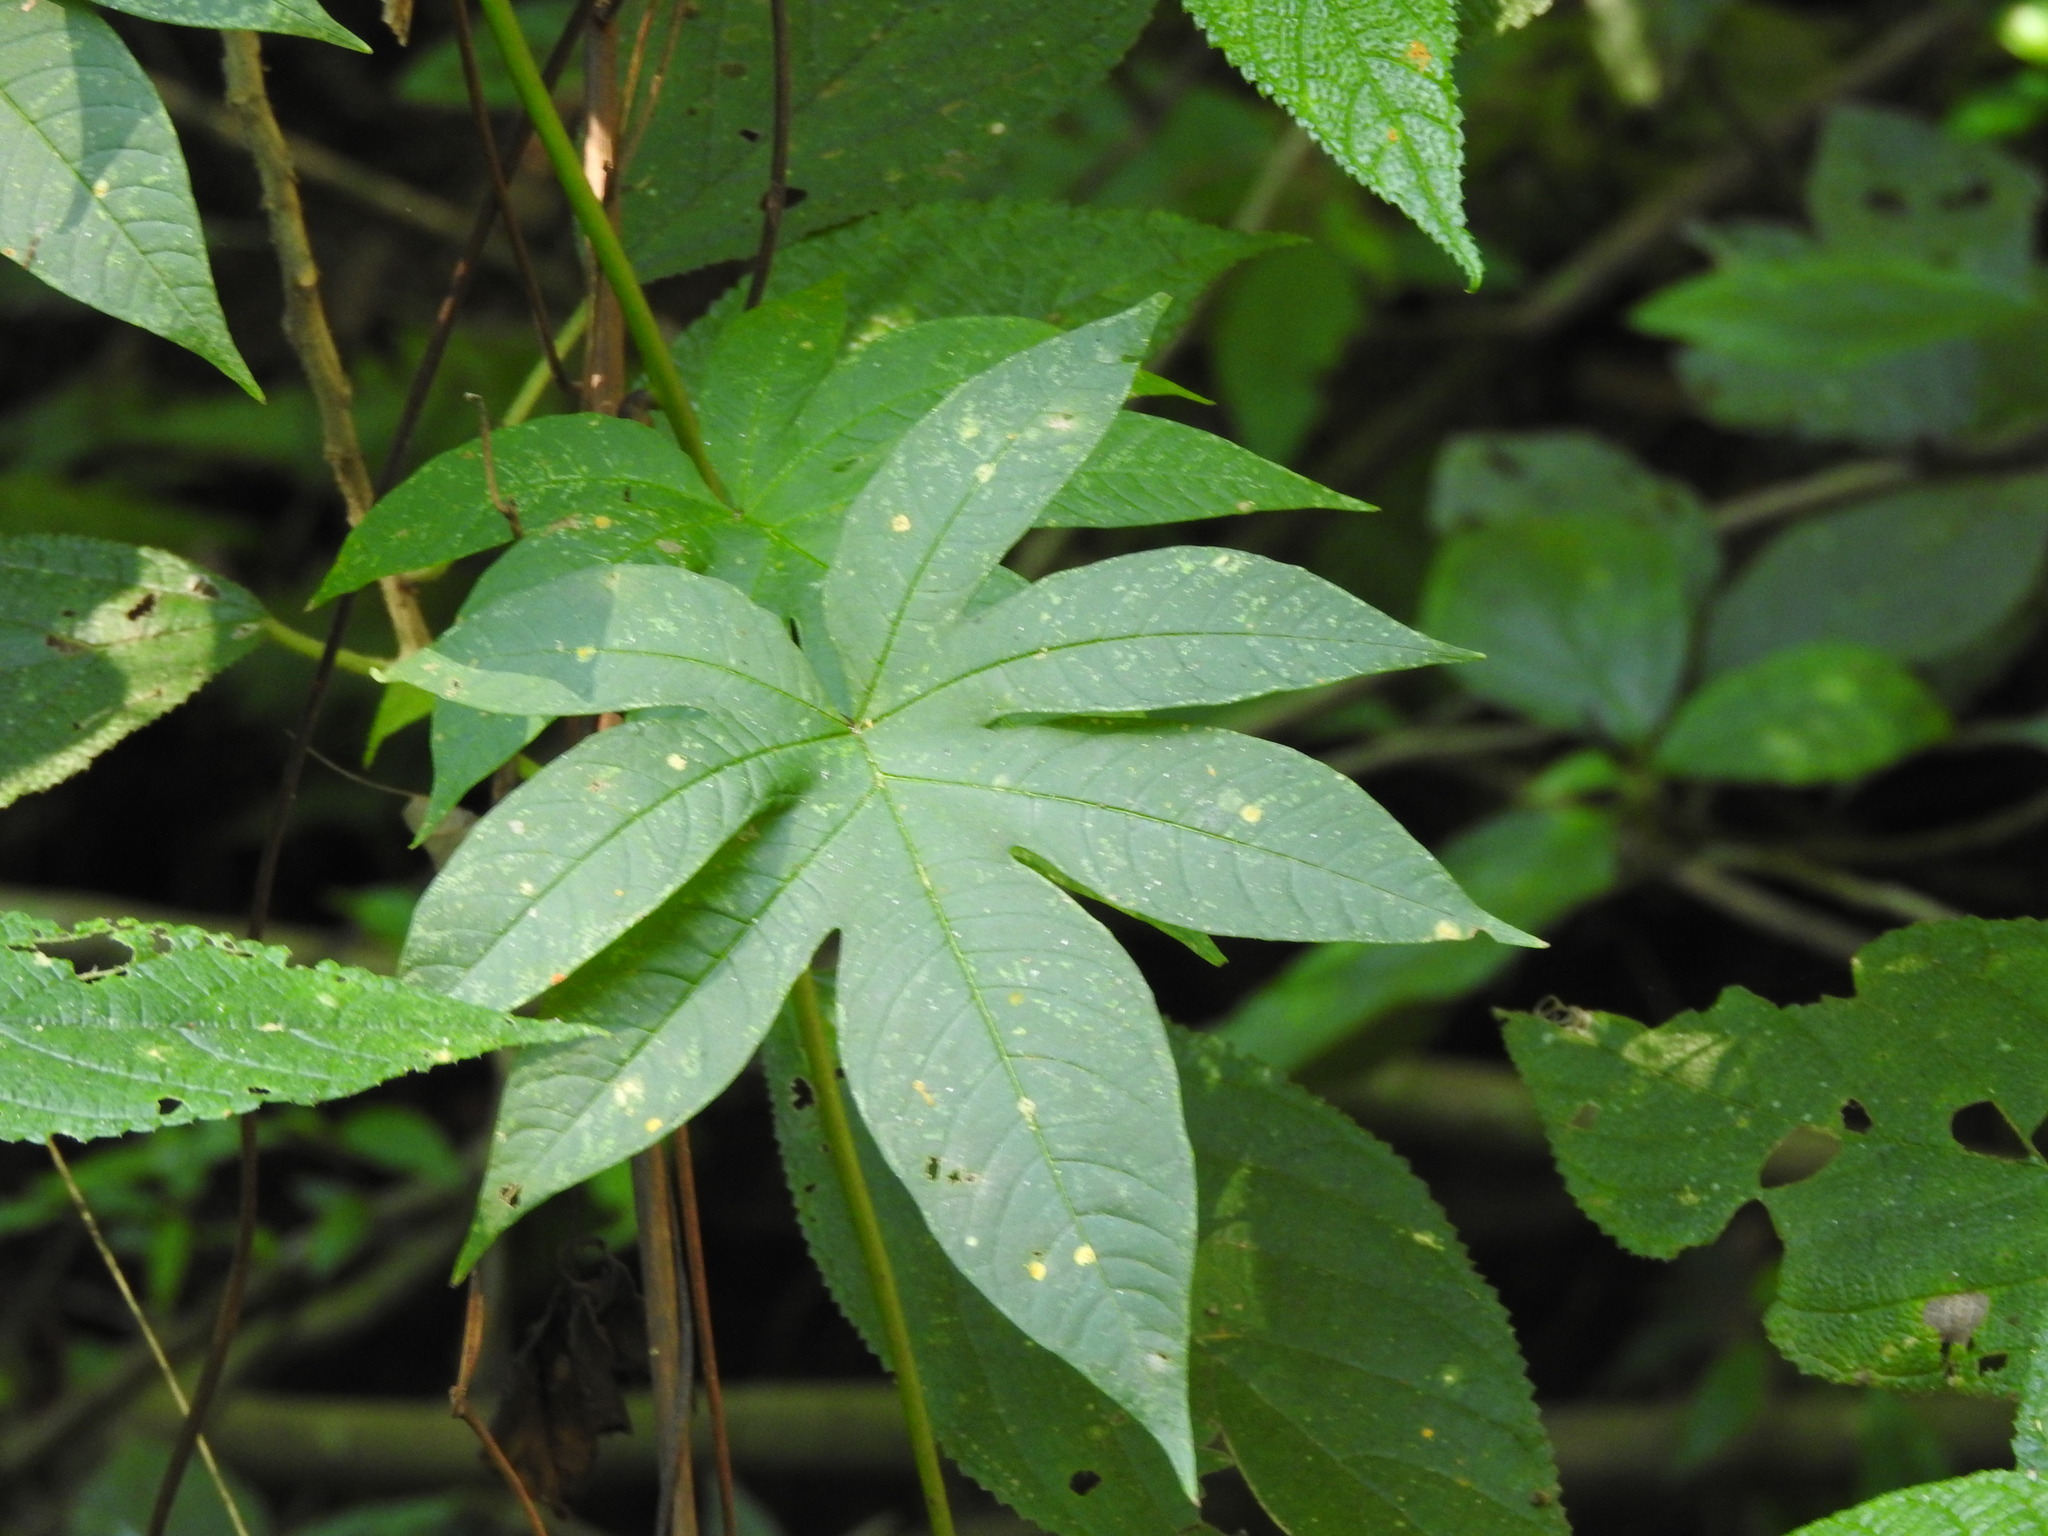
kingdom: Plantae
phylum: Tracheophyta
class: Magnoliopsida
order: Solanales
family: Convolvulaceae
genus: Distimake
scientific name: Distimake tuberosus
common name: Spanish arborvine
